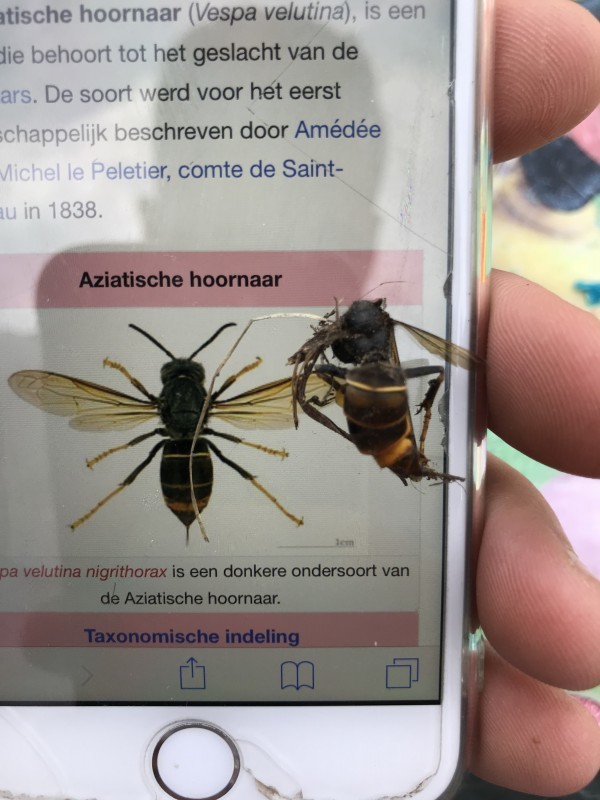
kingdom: Animalia
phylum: Arthropoda
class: Insecta
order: Hymenoptera
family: Vespidae
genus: Vespa
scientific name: Vespa velutina
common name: Asian hornet
